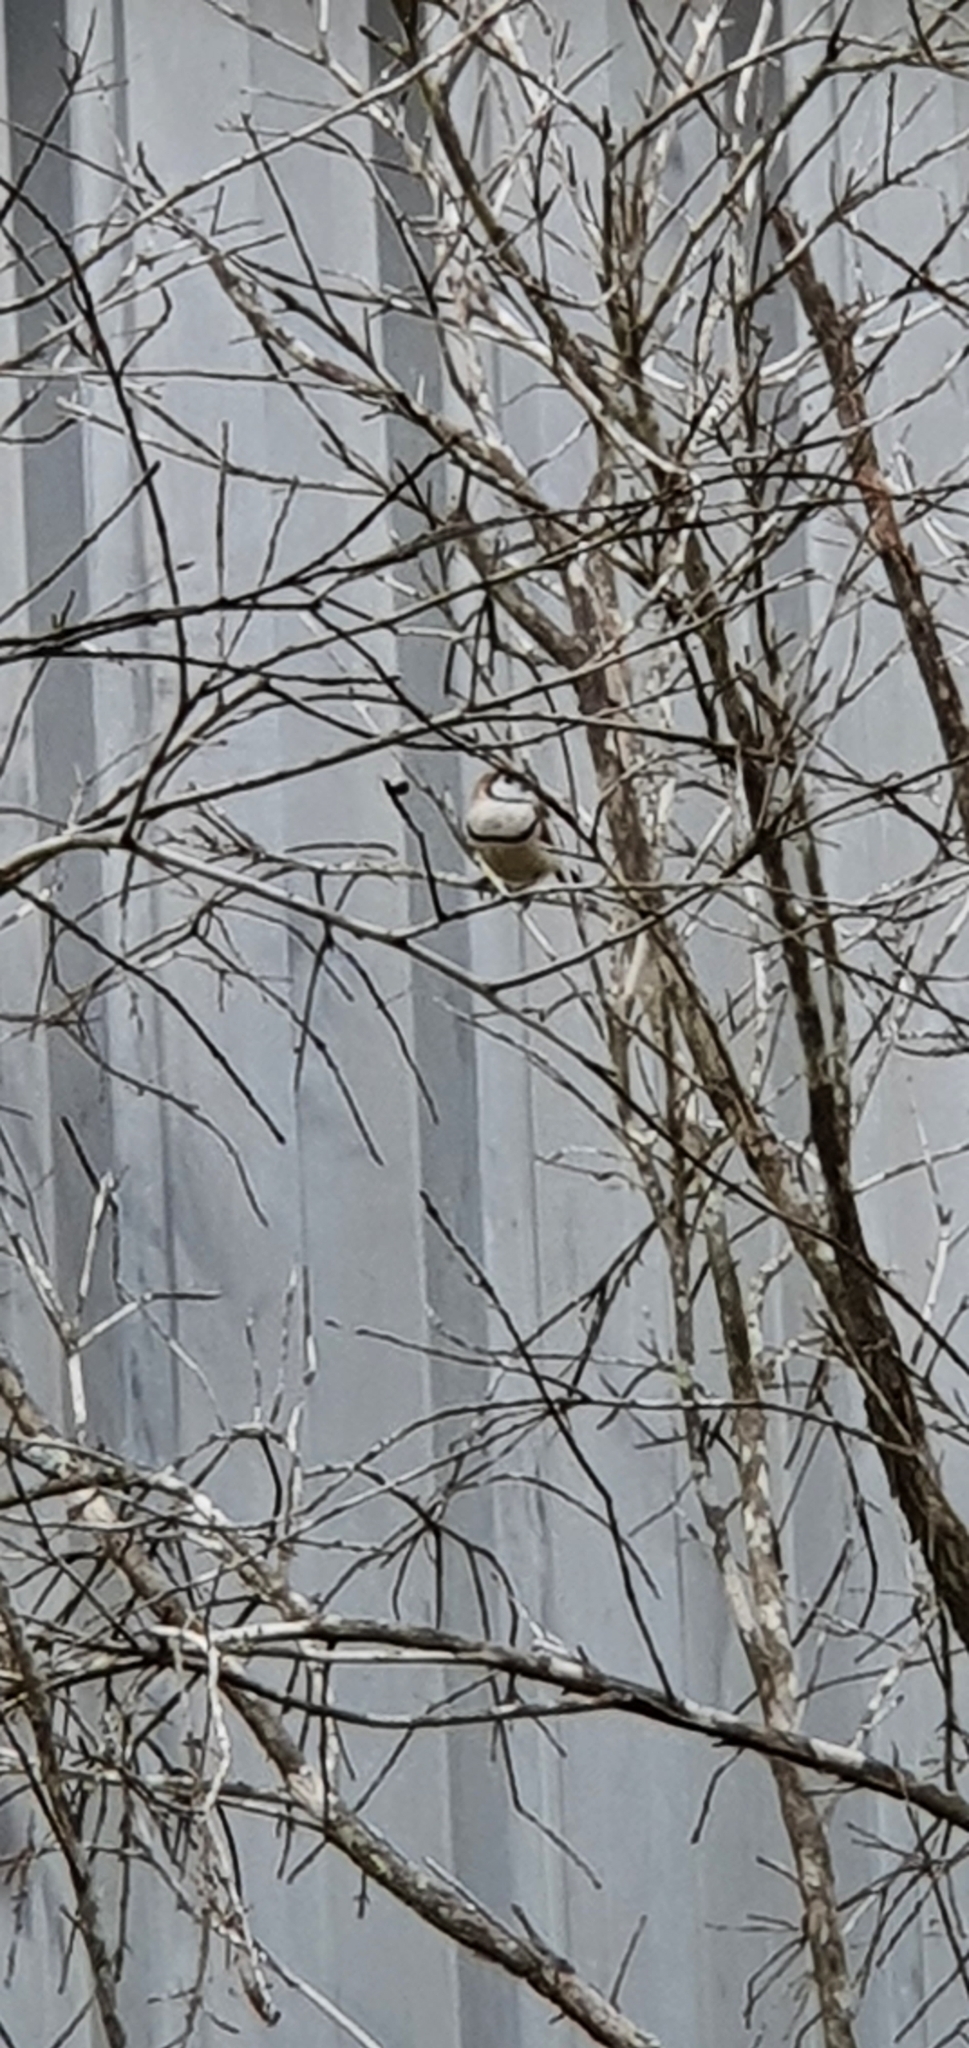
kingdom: Animalia
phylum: Chordata
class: Aves
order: Passeriformes
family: Estrildidae
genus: Taeniopygia
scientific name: Taeniopygia bichenovii
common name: Double-barred finch
